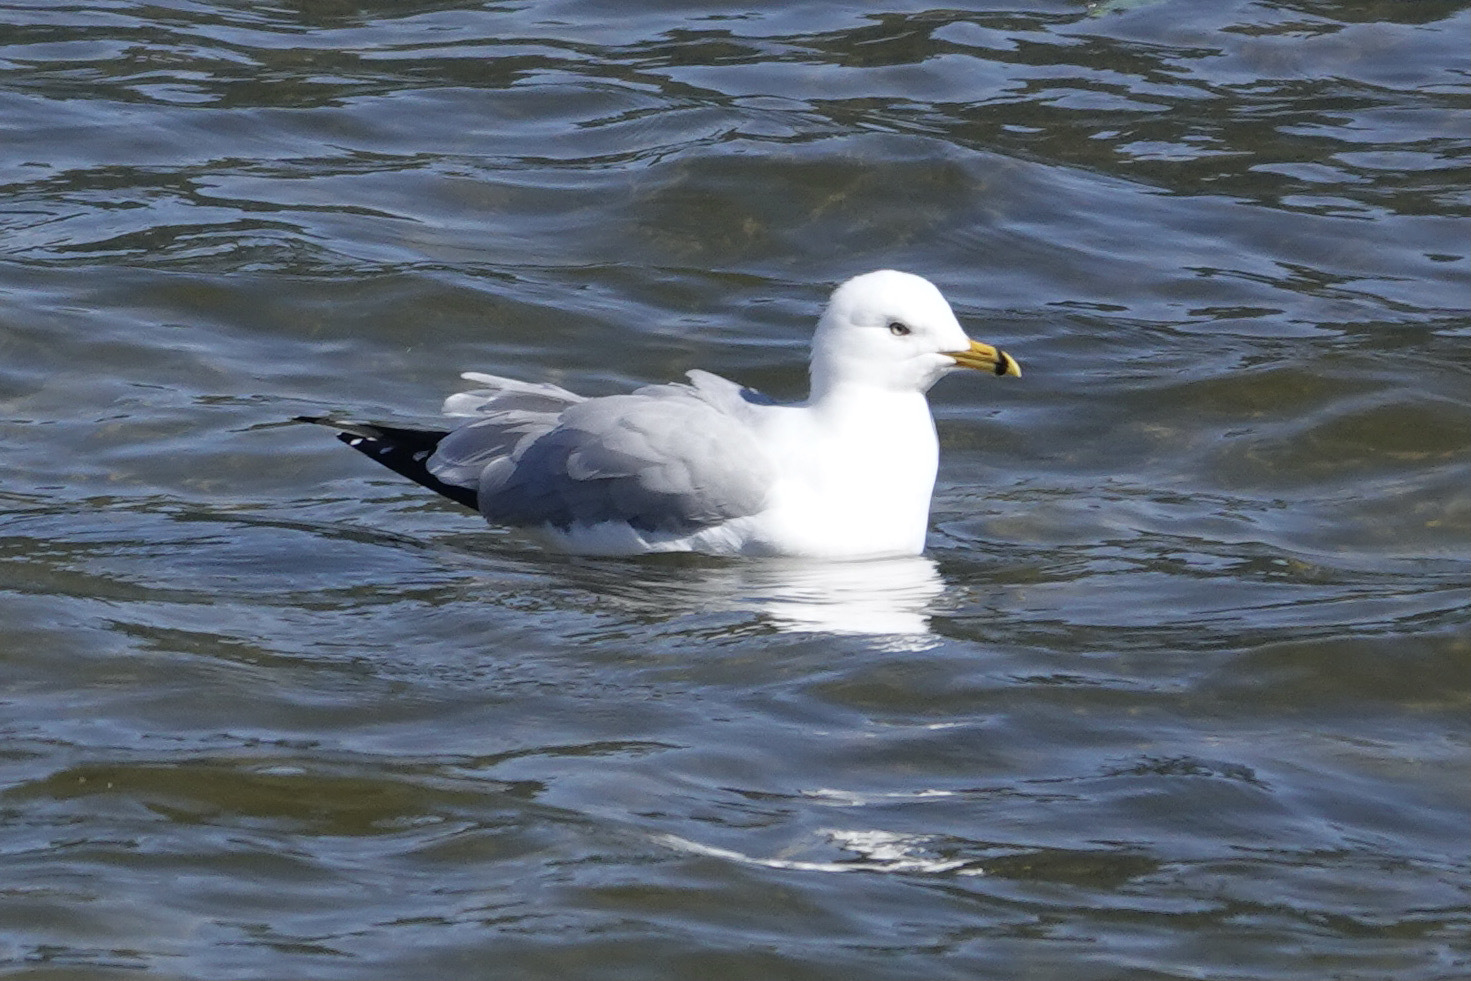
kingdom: Animalia
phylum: Chordata
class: Aves
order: Charadriiformes
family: Laridae
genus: Larus
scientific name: Larus delawarensis
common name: Ring-billed gull
